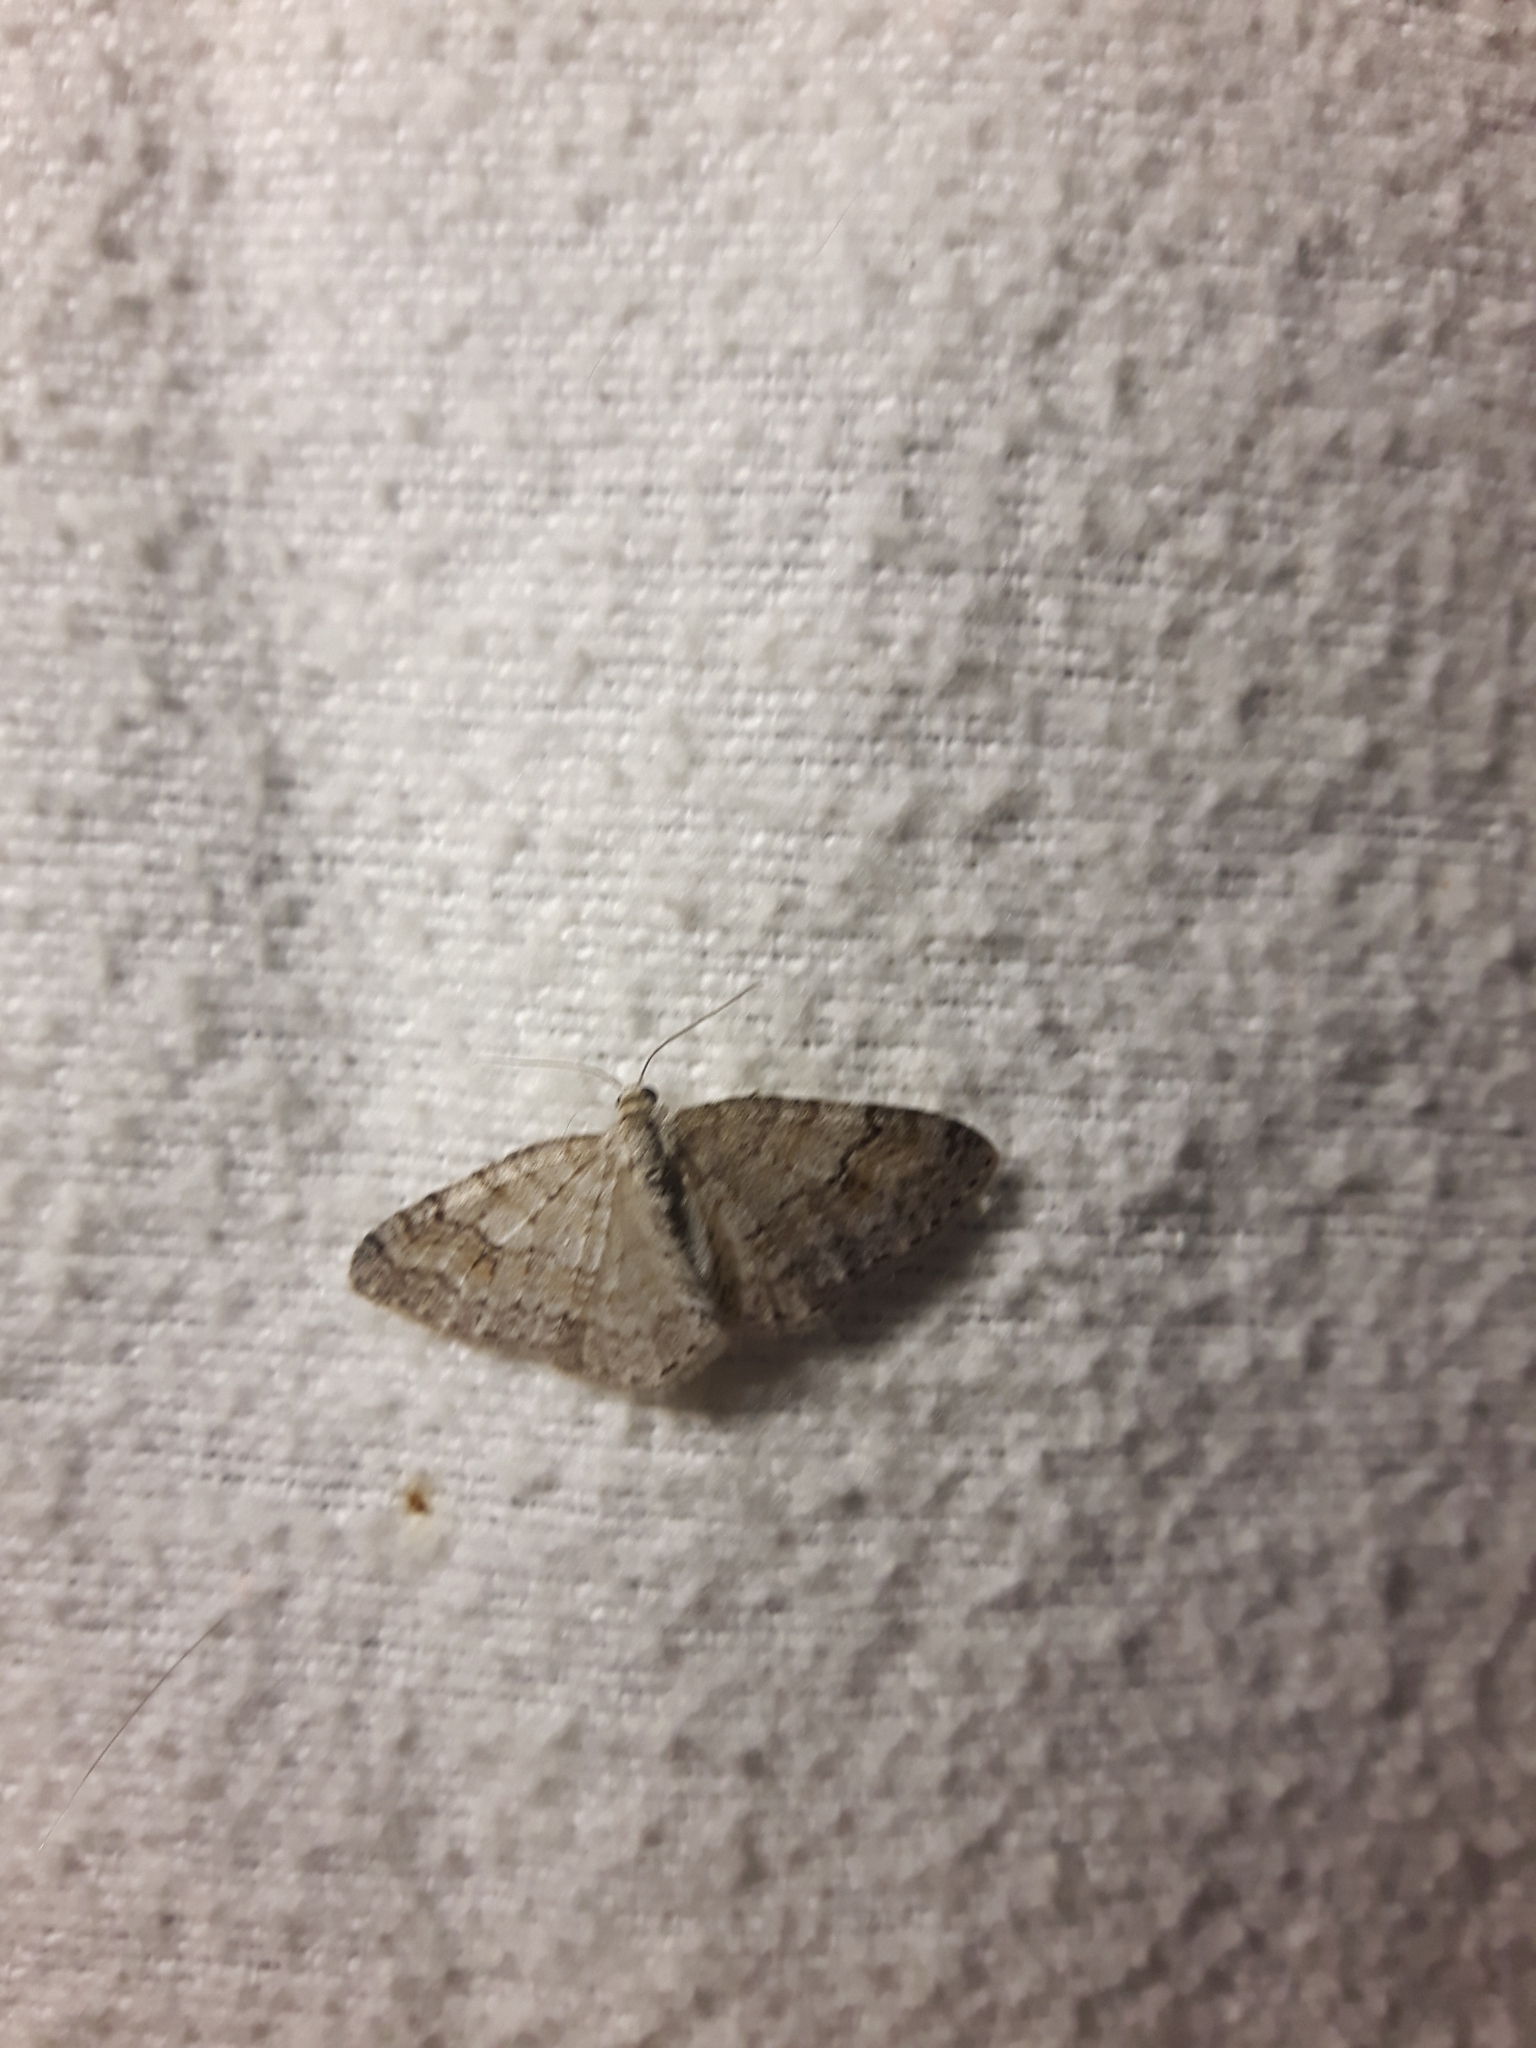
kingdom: Animalia
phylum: Arthropoda
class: Insecta
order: Lepidoptera
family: Geometridae
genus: Venusia
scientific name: Venusia comptaria
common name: Brown-shaded carpet
